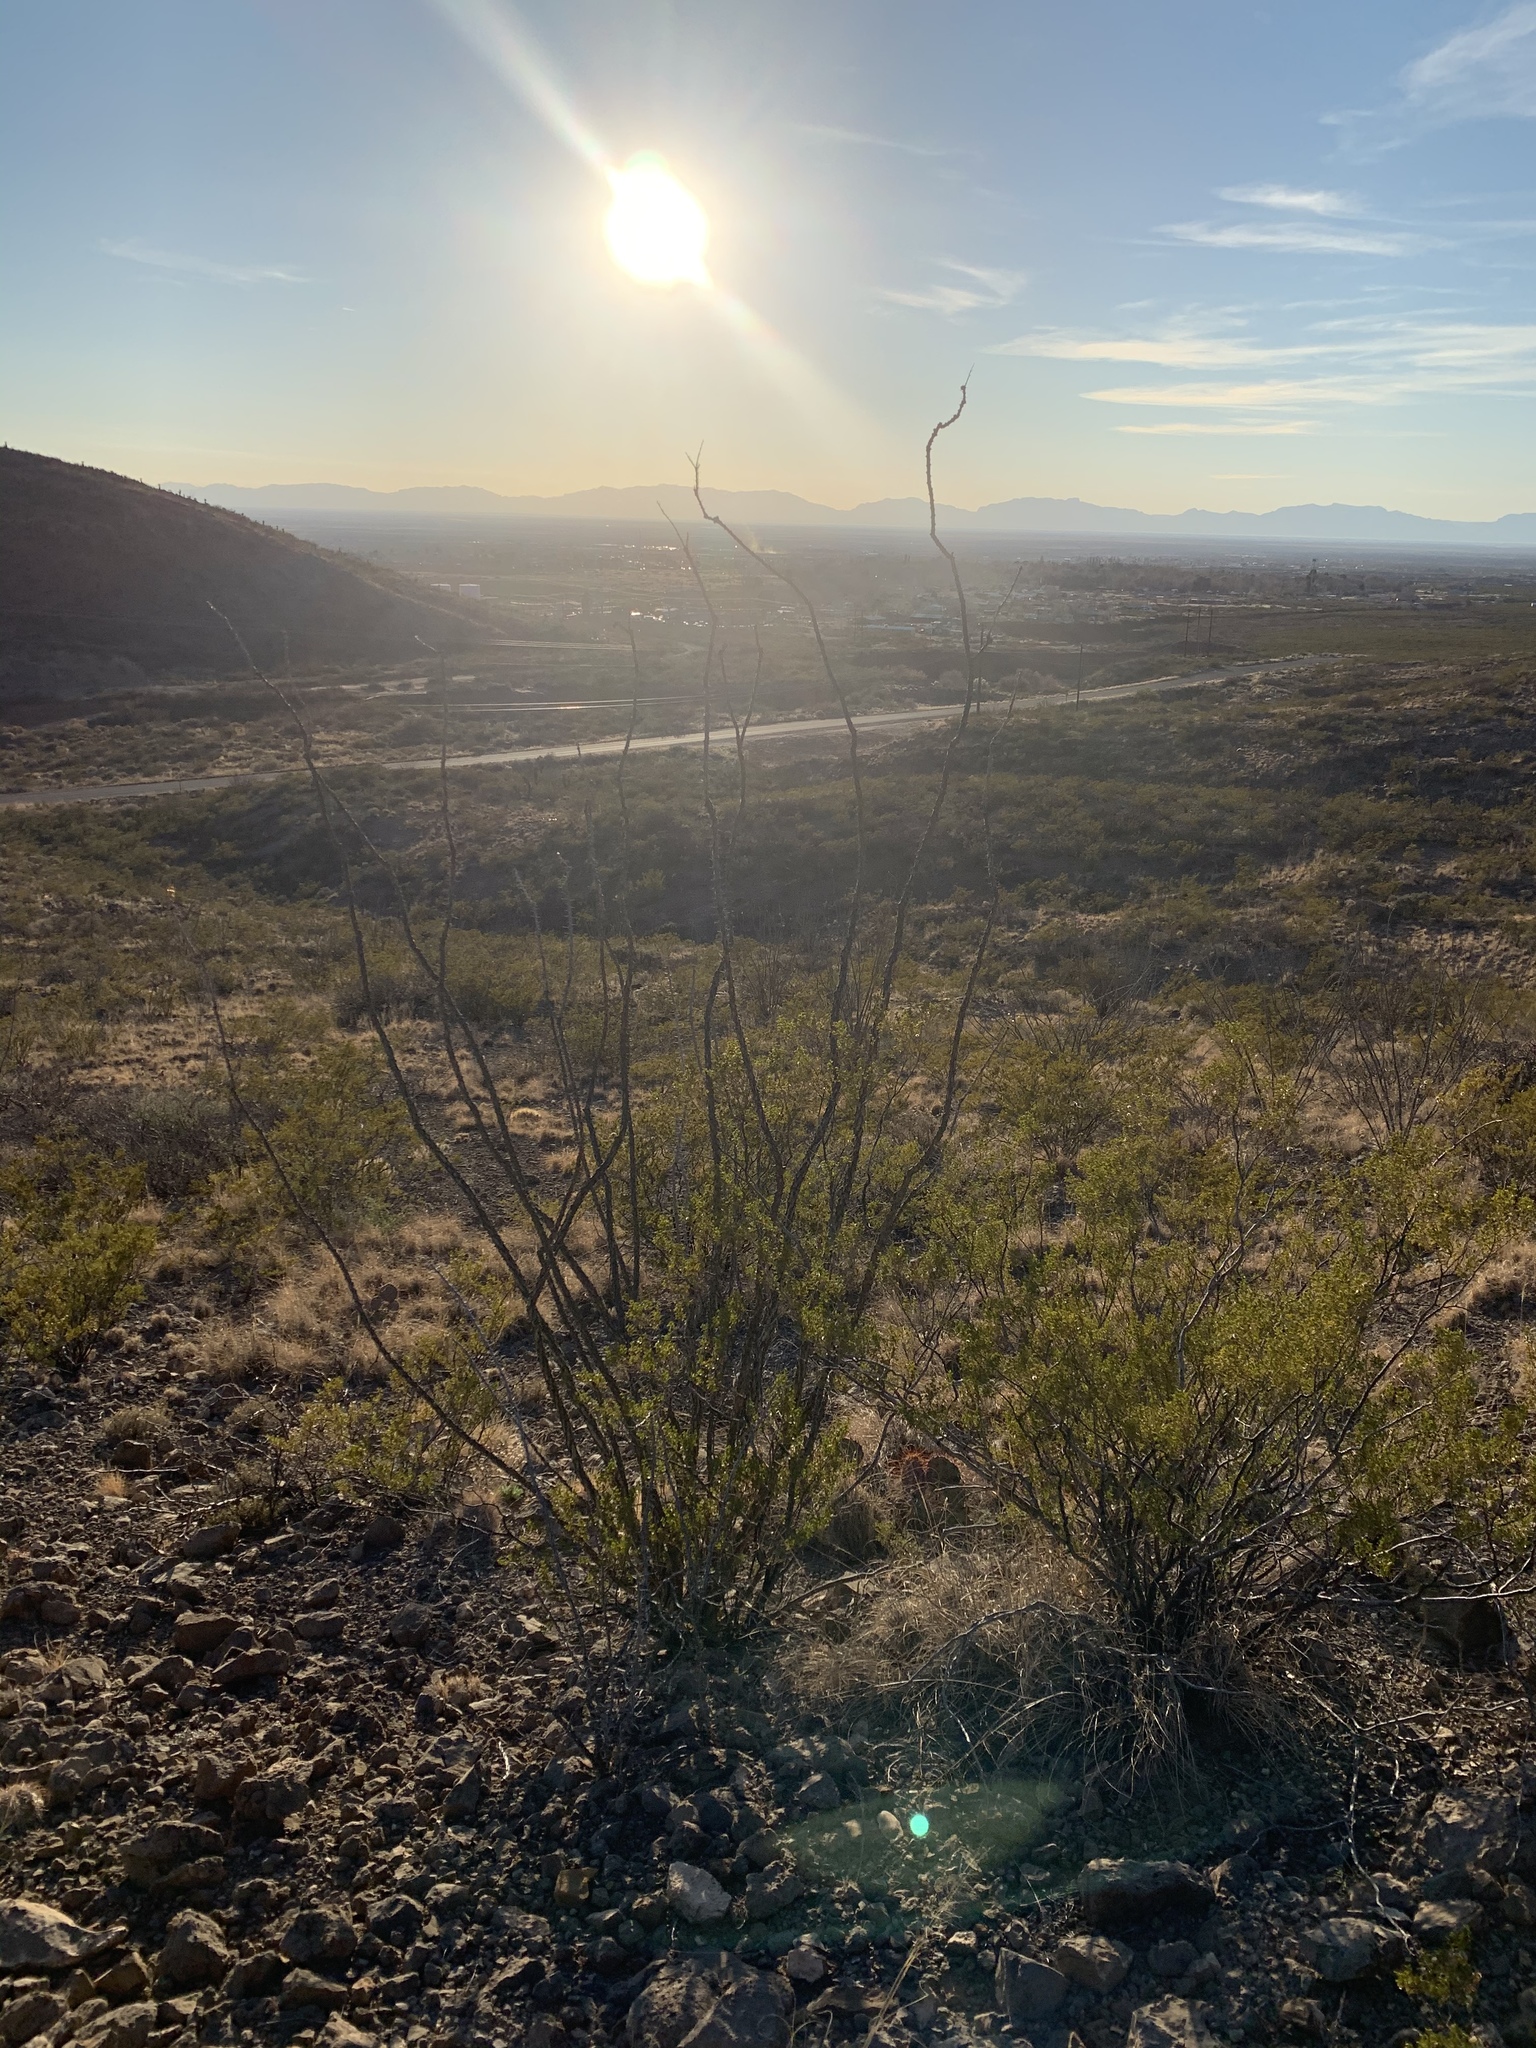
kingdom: Plantae
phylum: Tracheophyta
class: Magnoliopsida
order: Ericales
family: Fouquieriaceae
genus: Fouquieria
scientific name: Fouquieria splendens
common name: Vine-cactus
